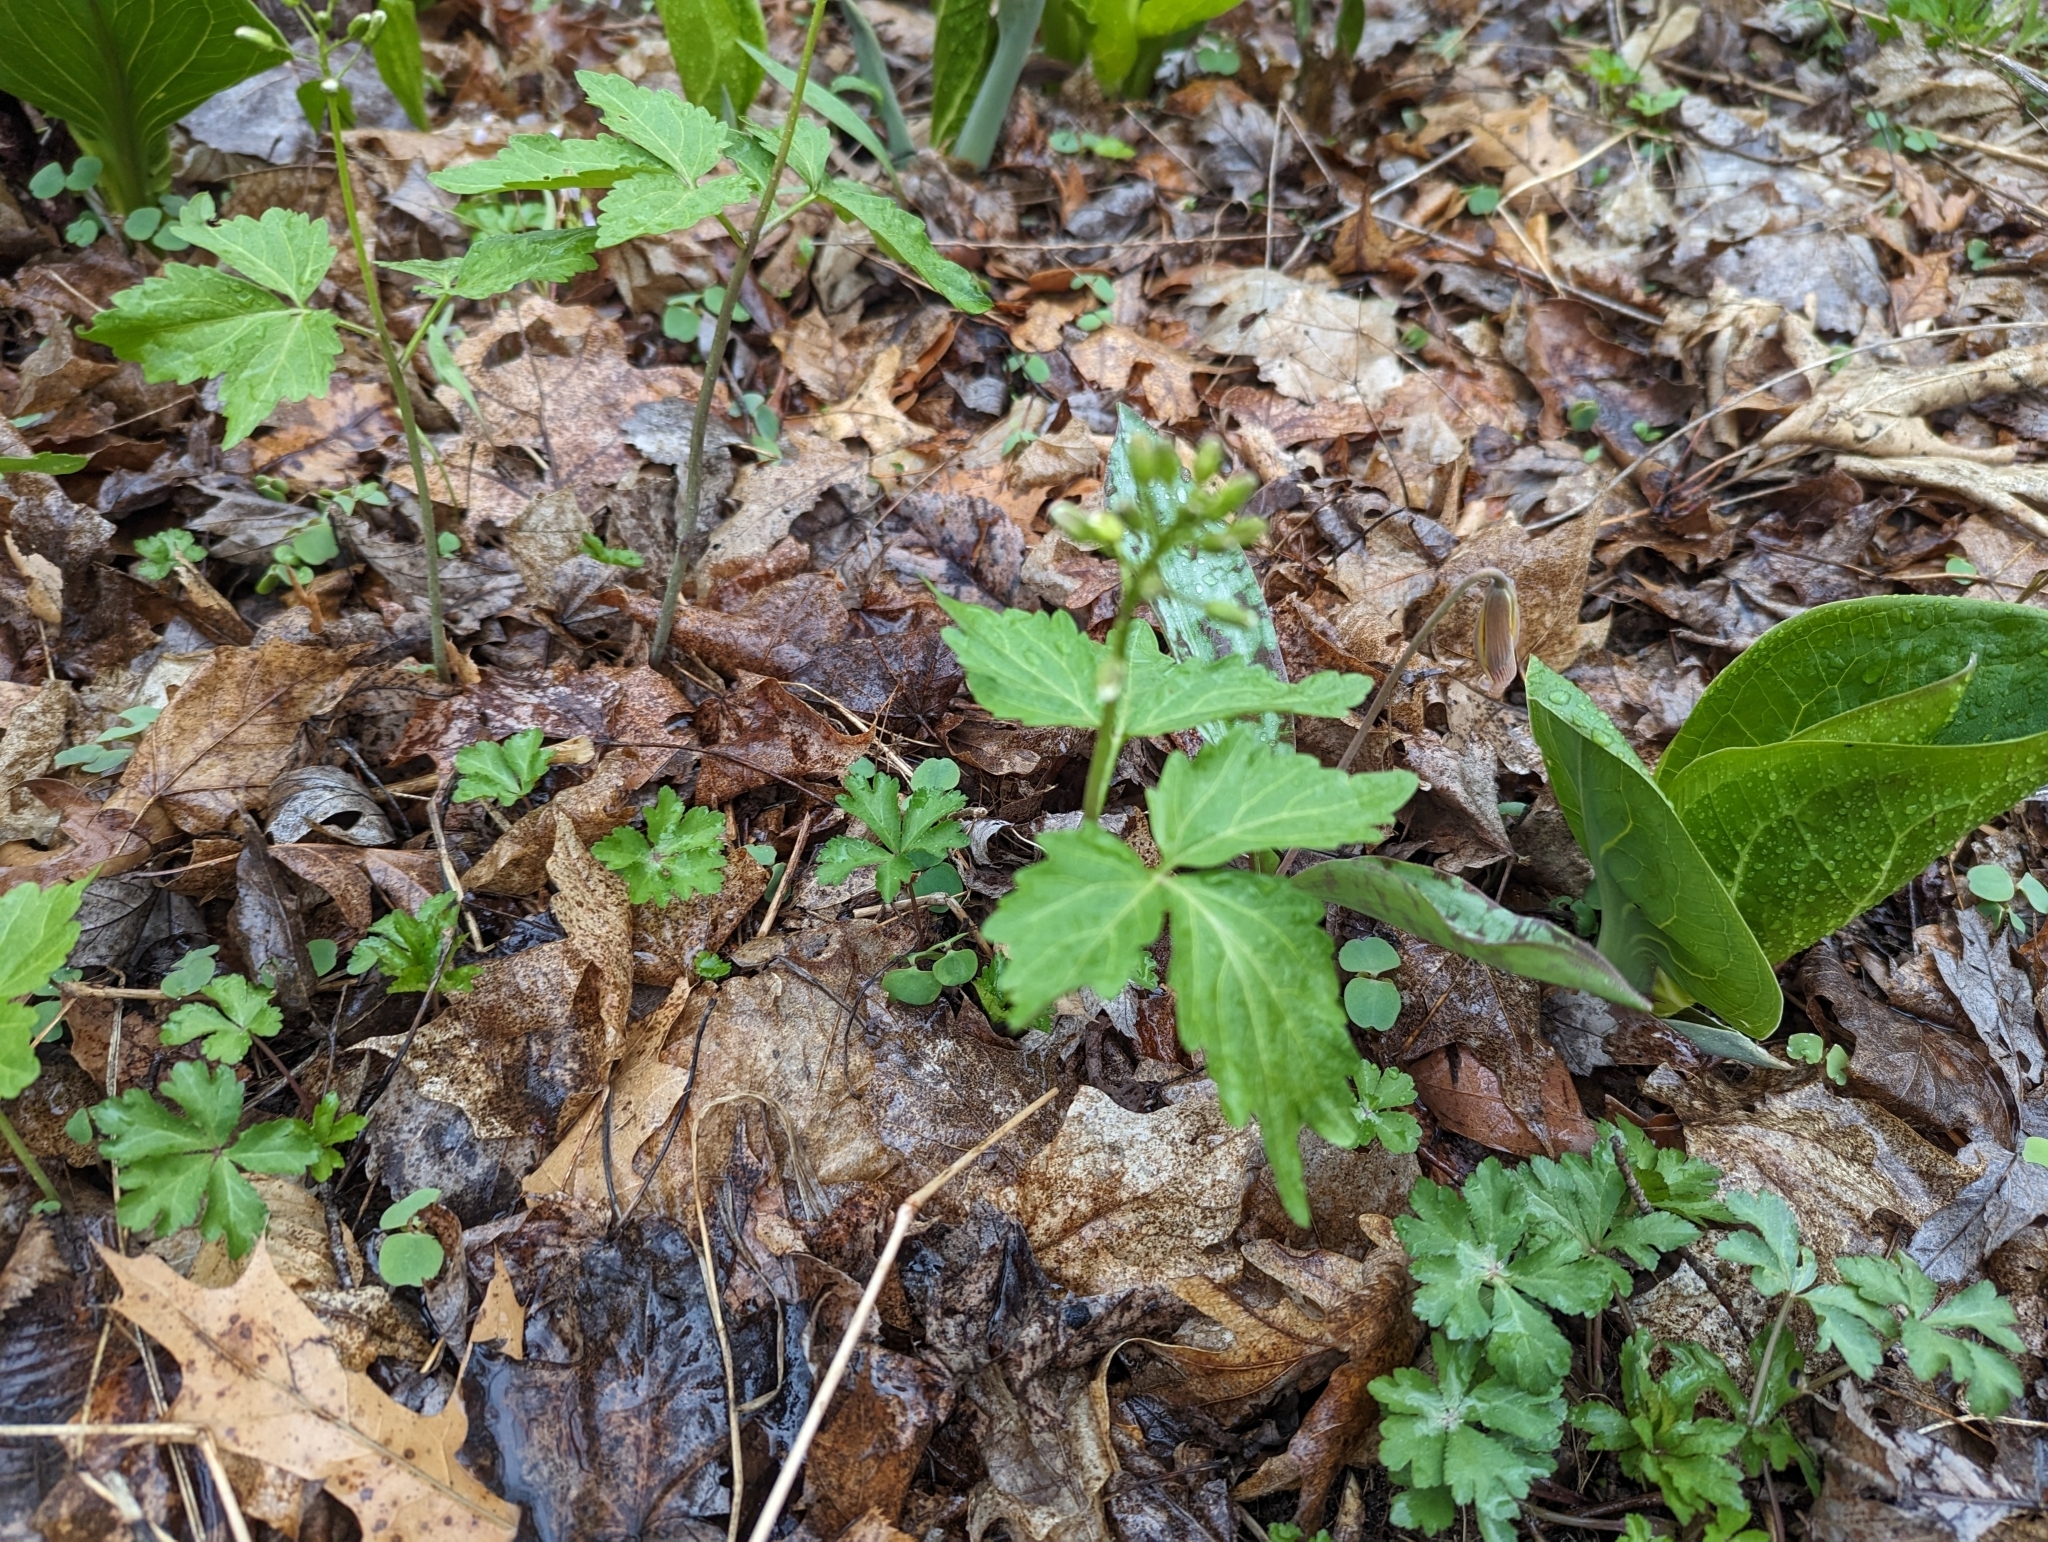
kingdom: Plantae
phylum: Tracheophyta
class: Magnoliopsida
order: Brassicales
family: Brassicaceae
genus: Cardamine
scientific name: Cardamine diphylla
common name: Broad-leaved toothwort
